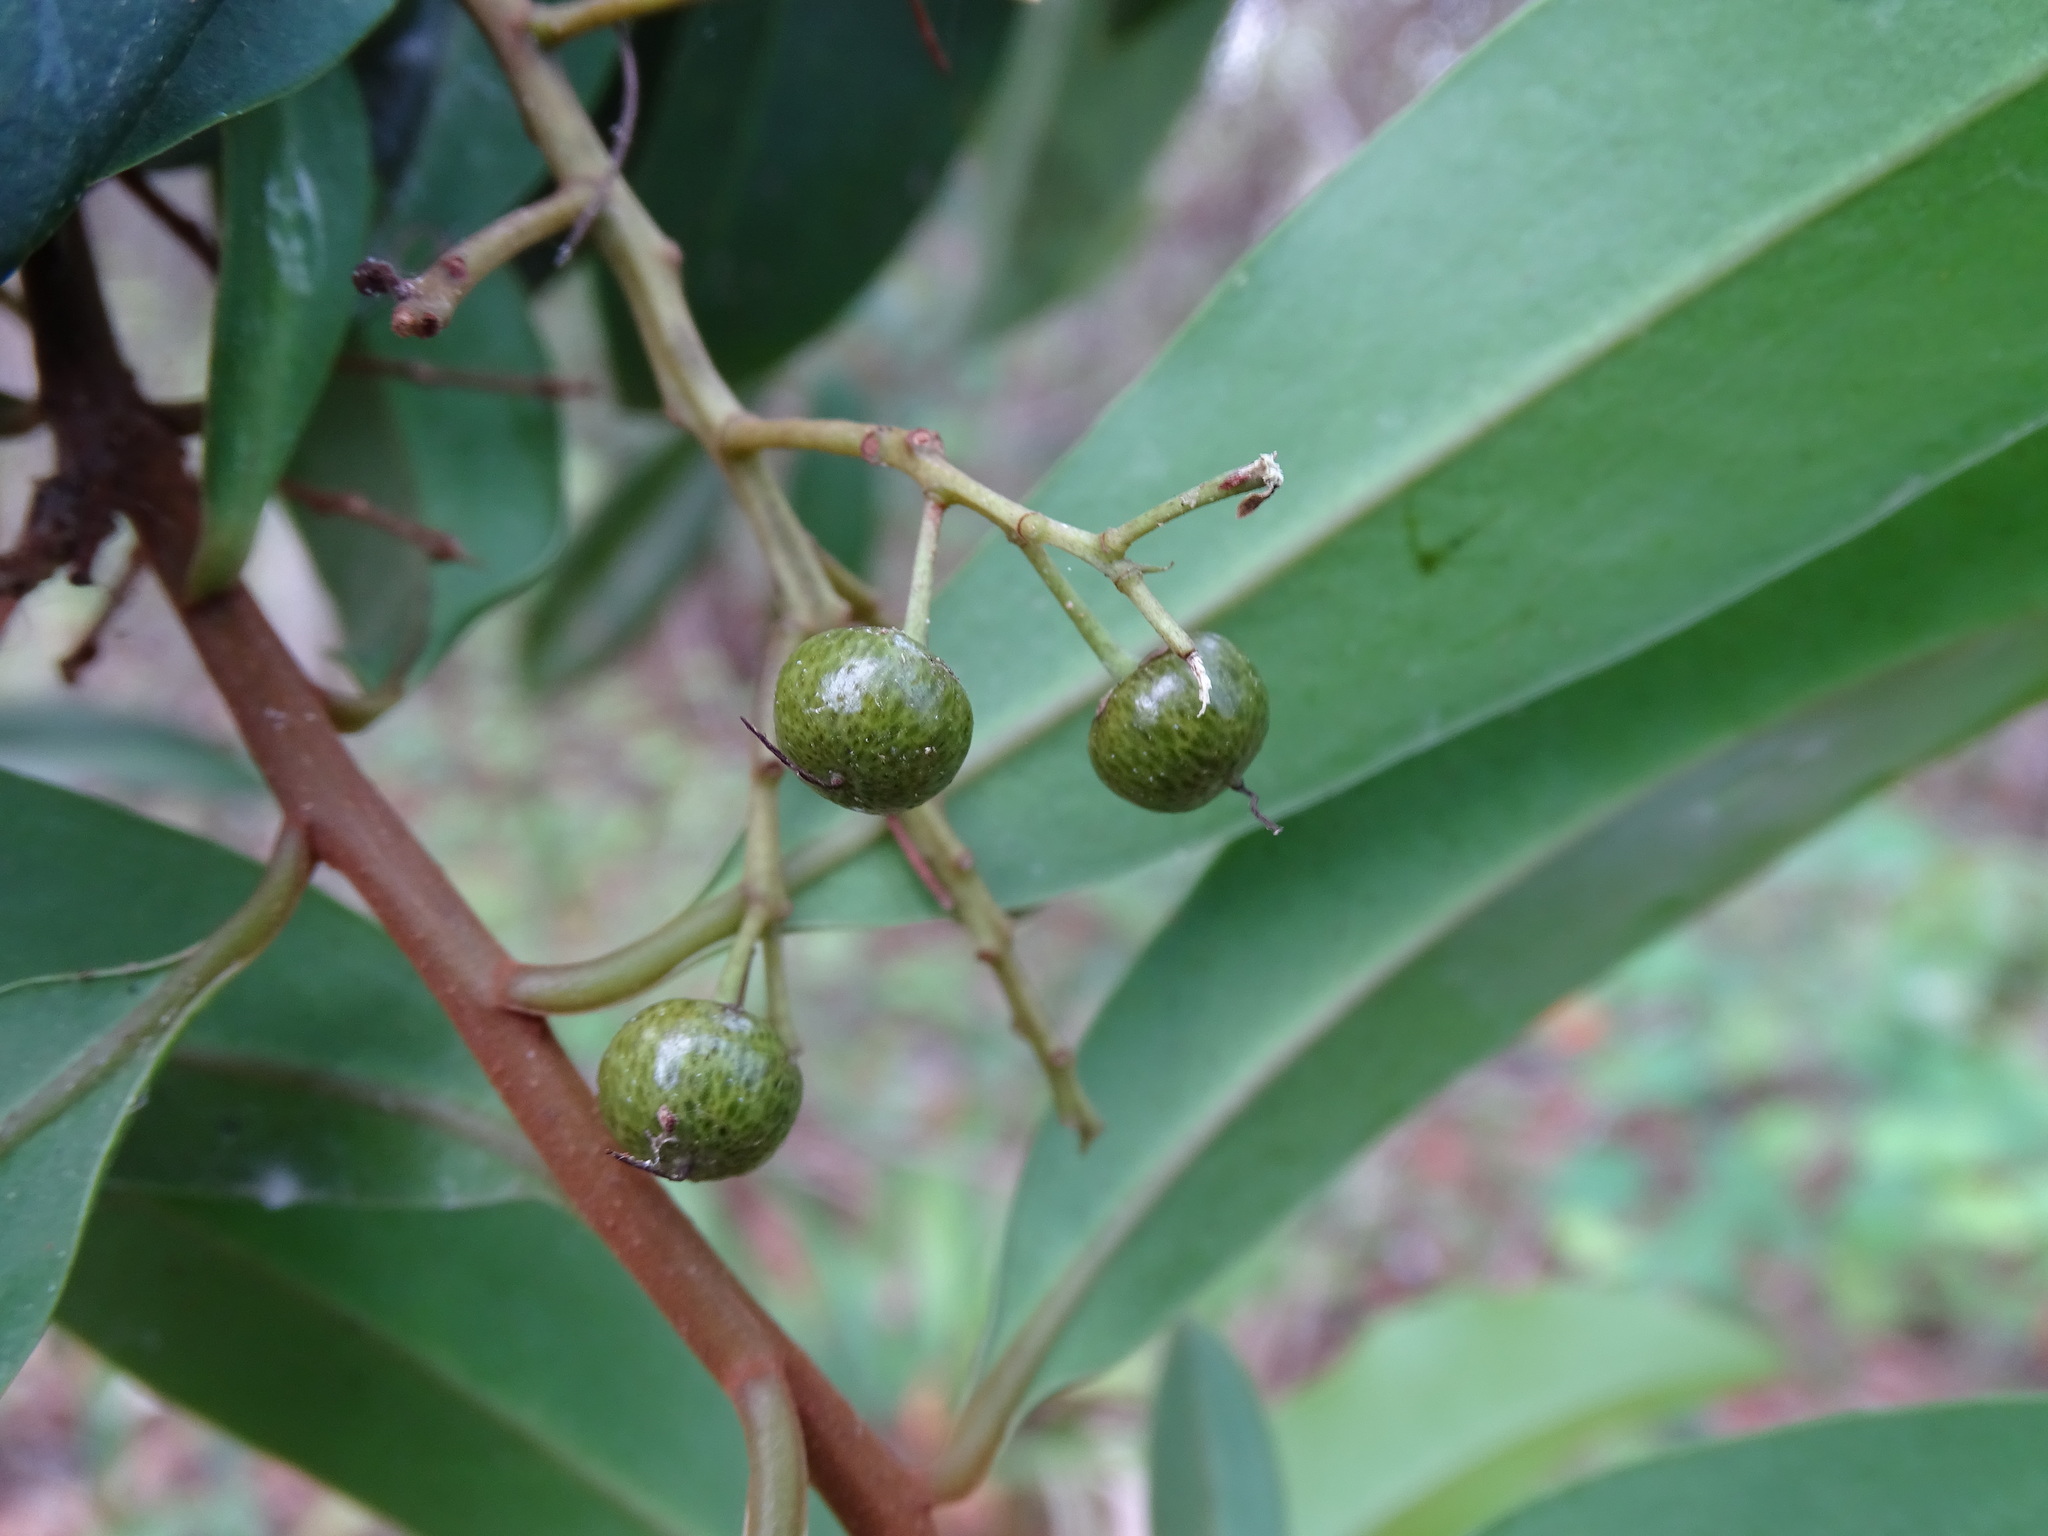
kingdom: Plantae
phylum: Tracheophyta
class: Magnoliopsida
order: Ericales
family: Primulaceae
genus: Ardisia
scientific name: Ardisia escallonioides
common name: Island marlberry
